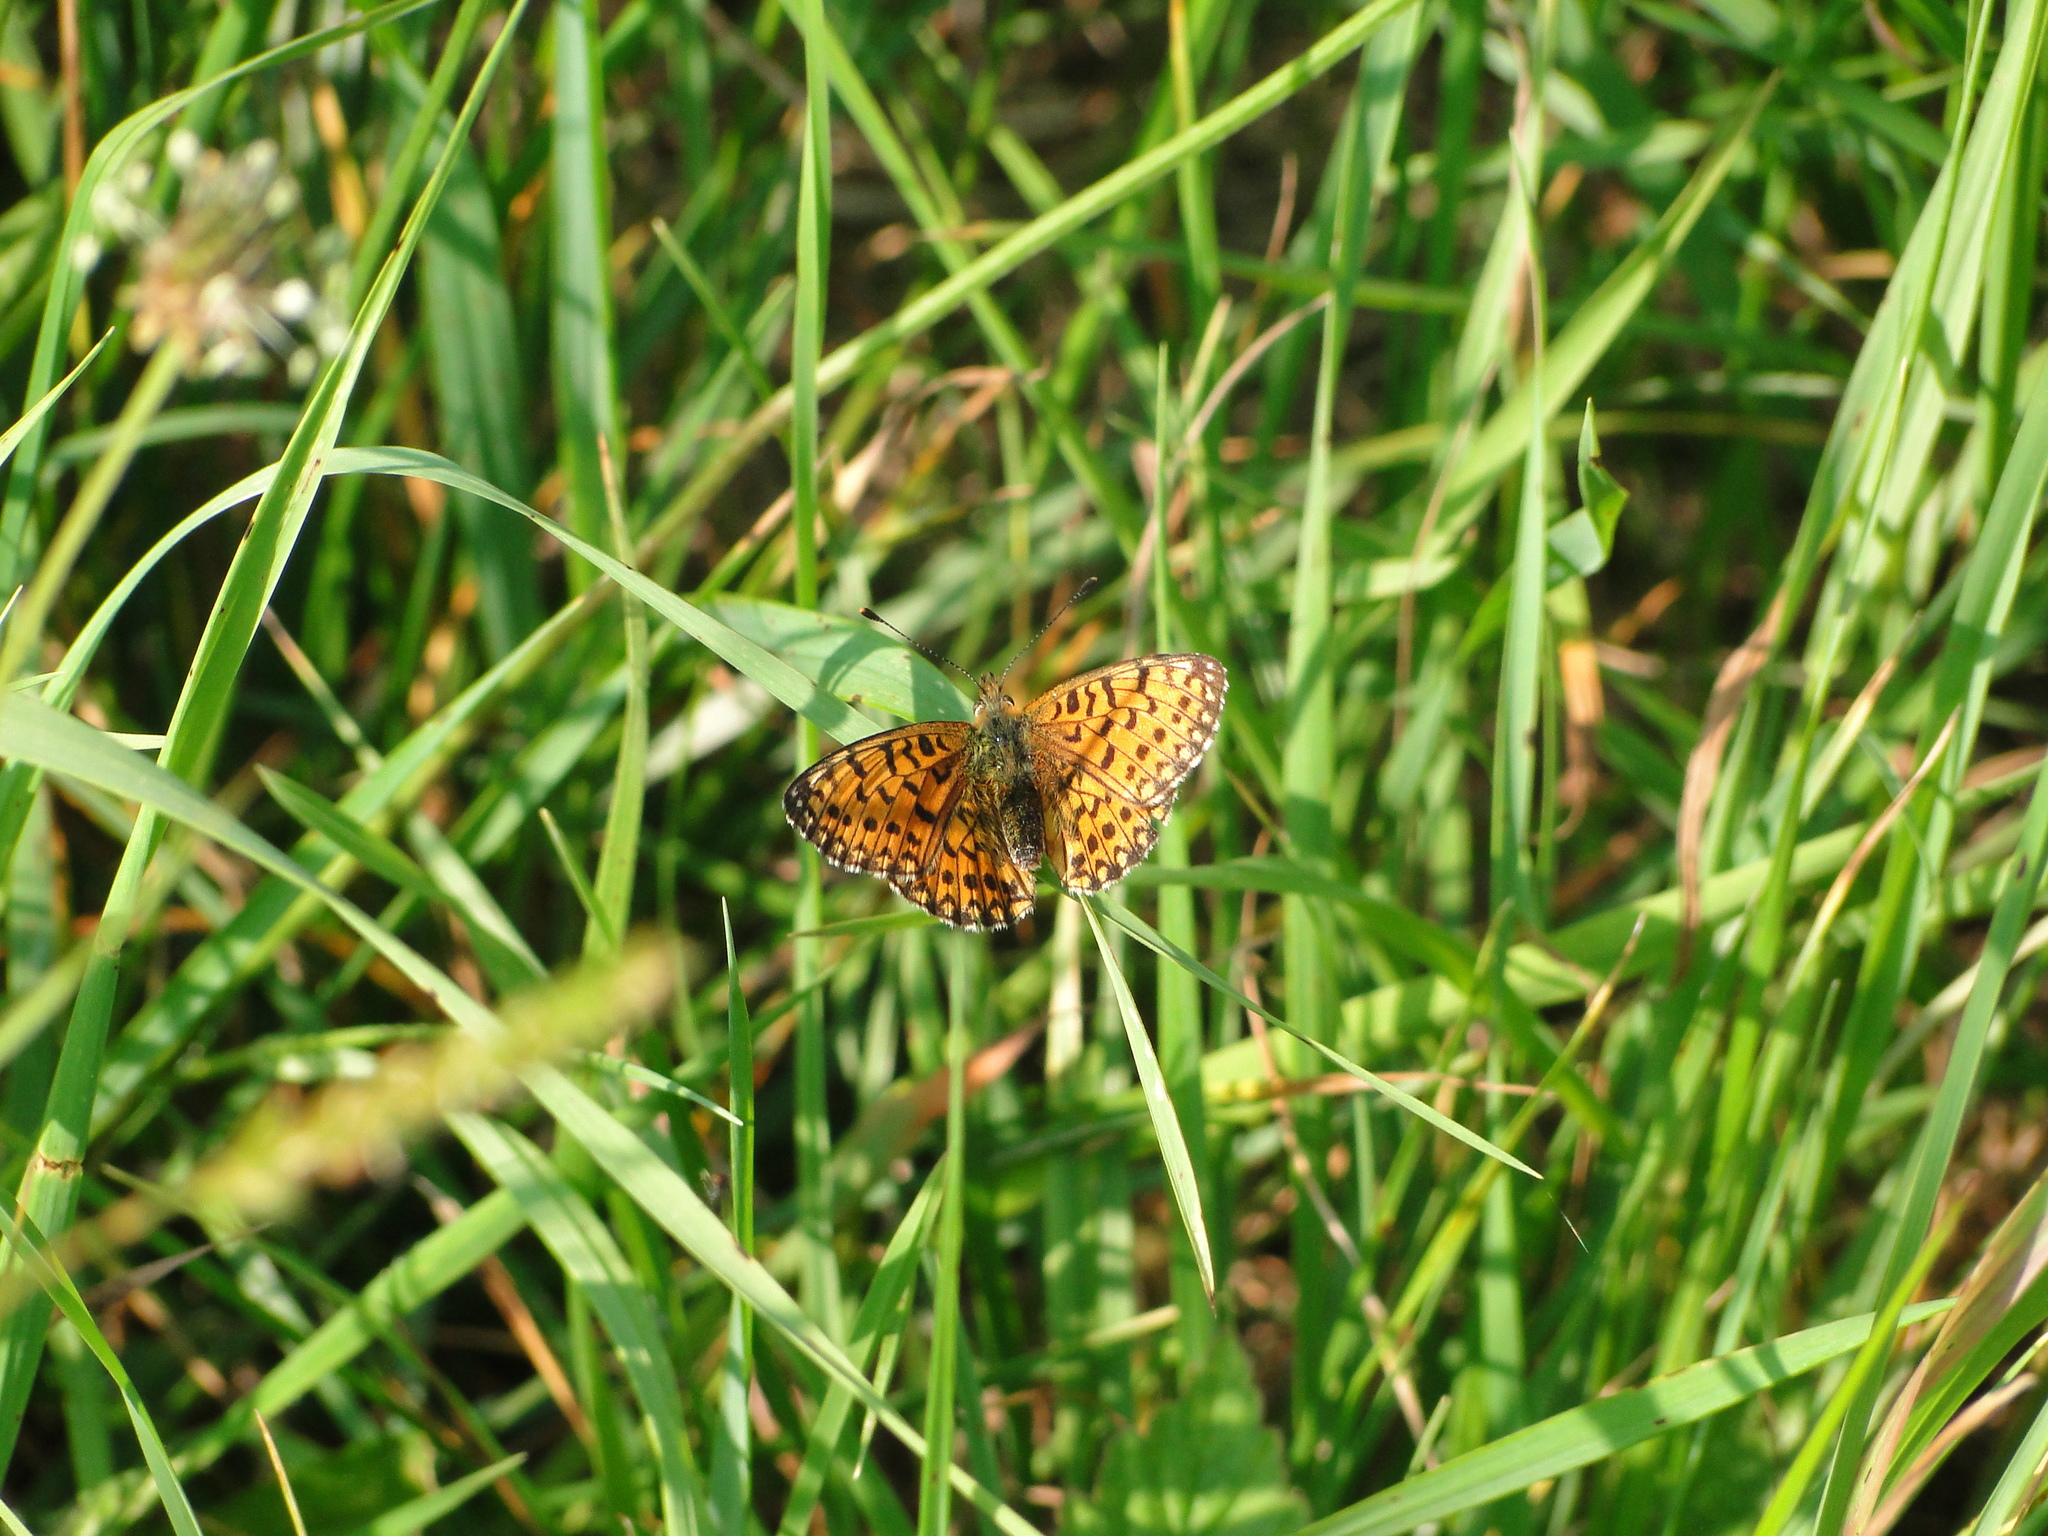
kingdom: Animalia
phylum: Arthropoda
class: Insecta
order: Lepidoptera
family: Nymphalidae
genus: Boloria
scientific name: Boloria selene
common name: Small pearl-bordered fritillary
